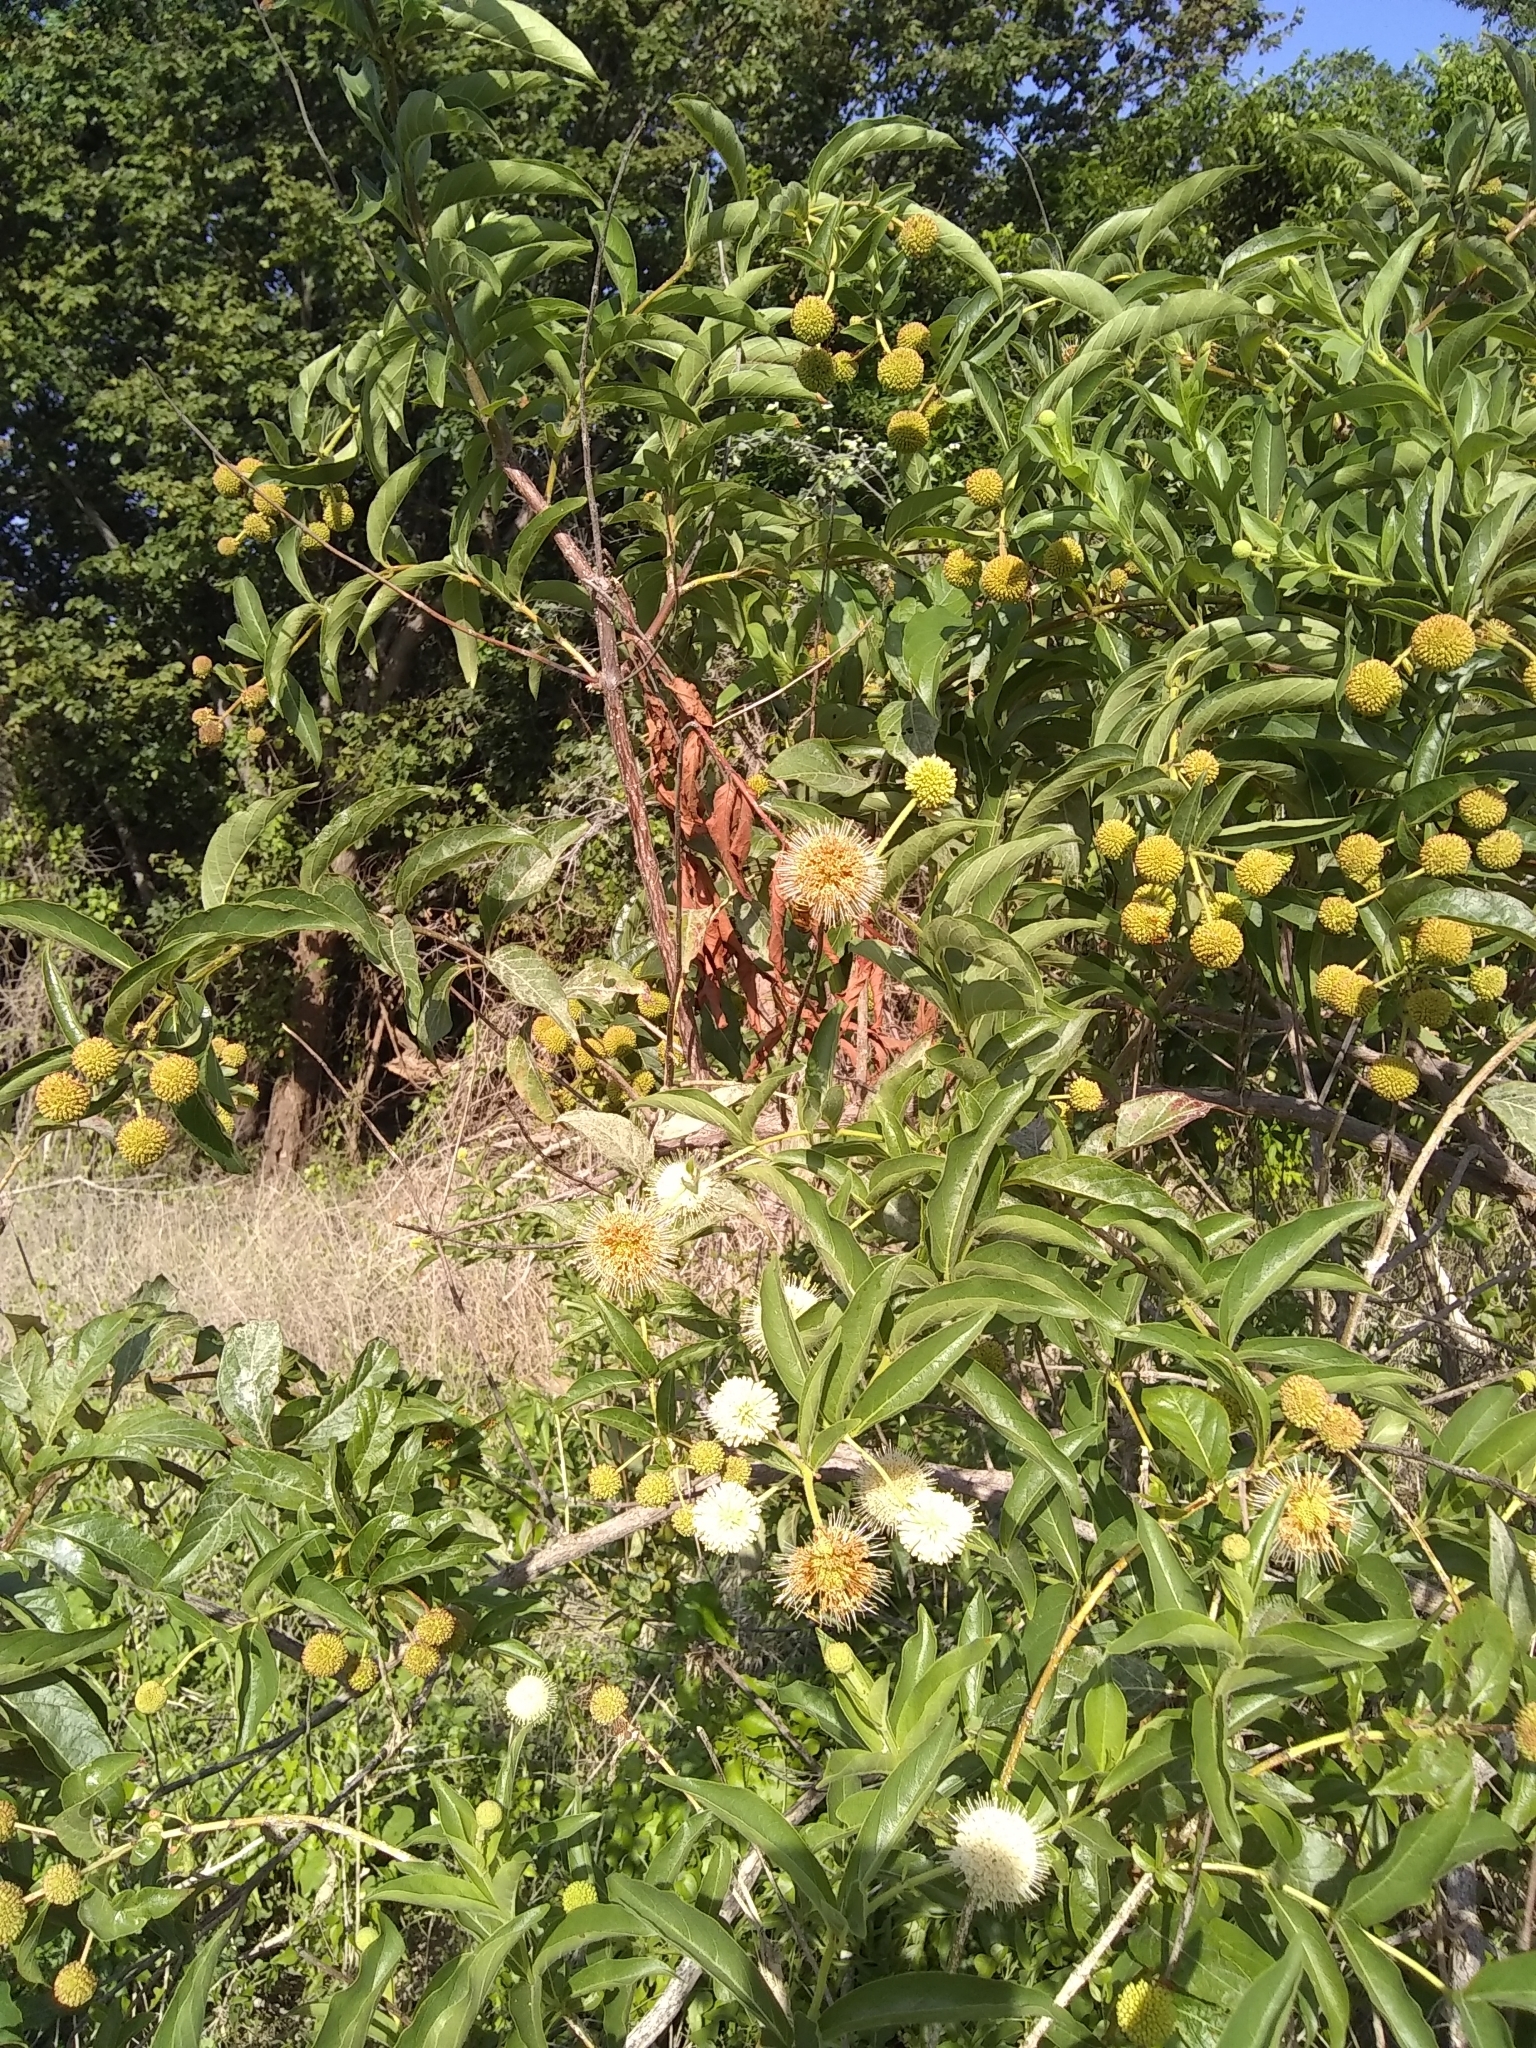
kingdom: Plantae
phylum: Tracheophyta
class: Magnoliopsida
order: Gentianales
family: Rubiaceae
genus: Cephalanthus
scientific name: Cephalanthus occidentalis
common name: Button-willow
